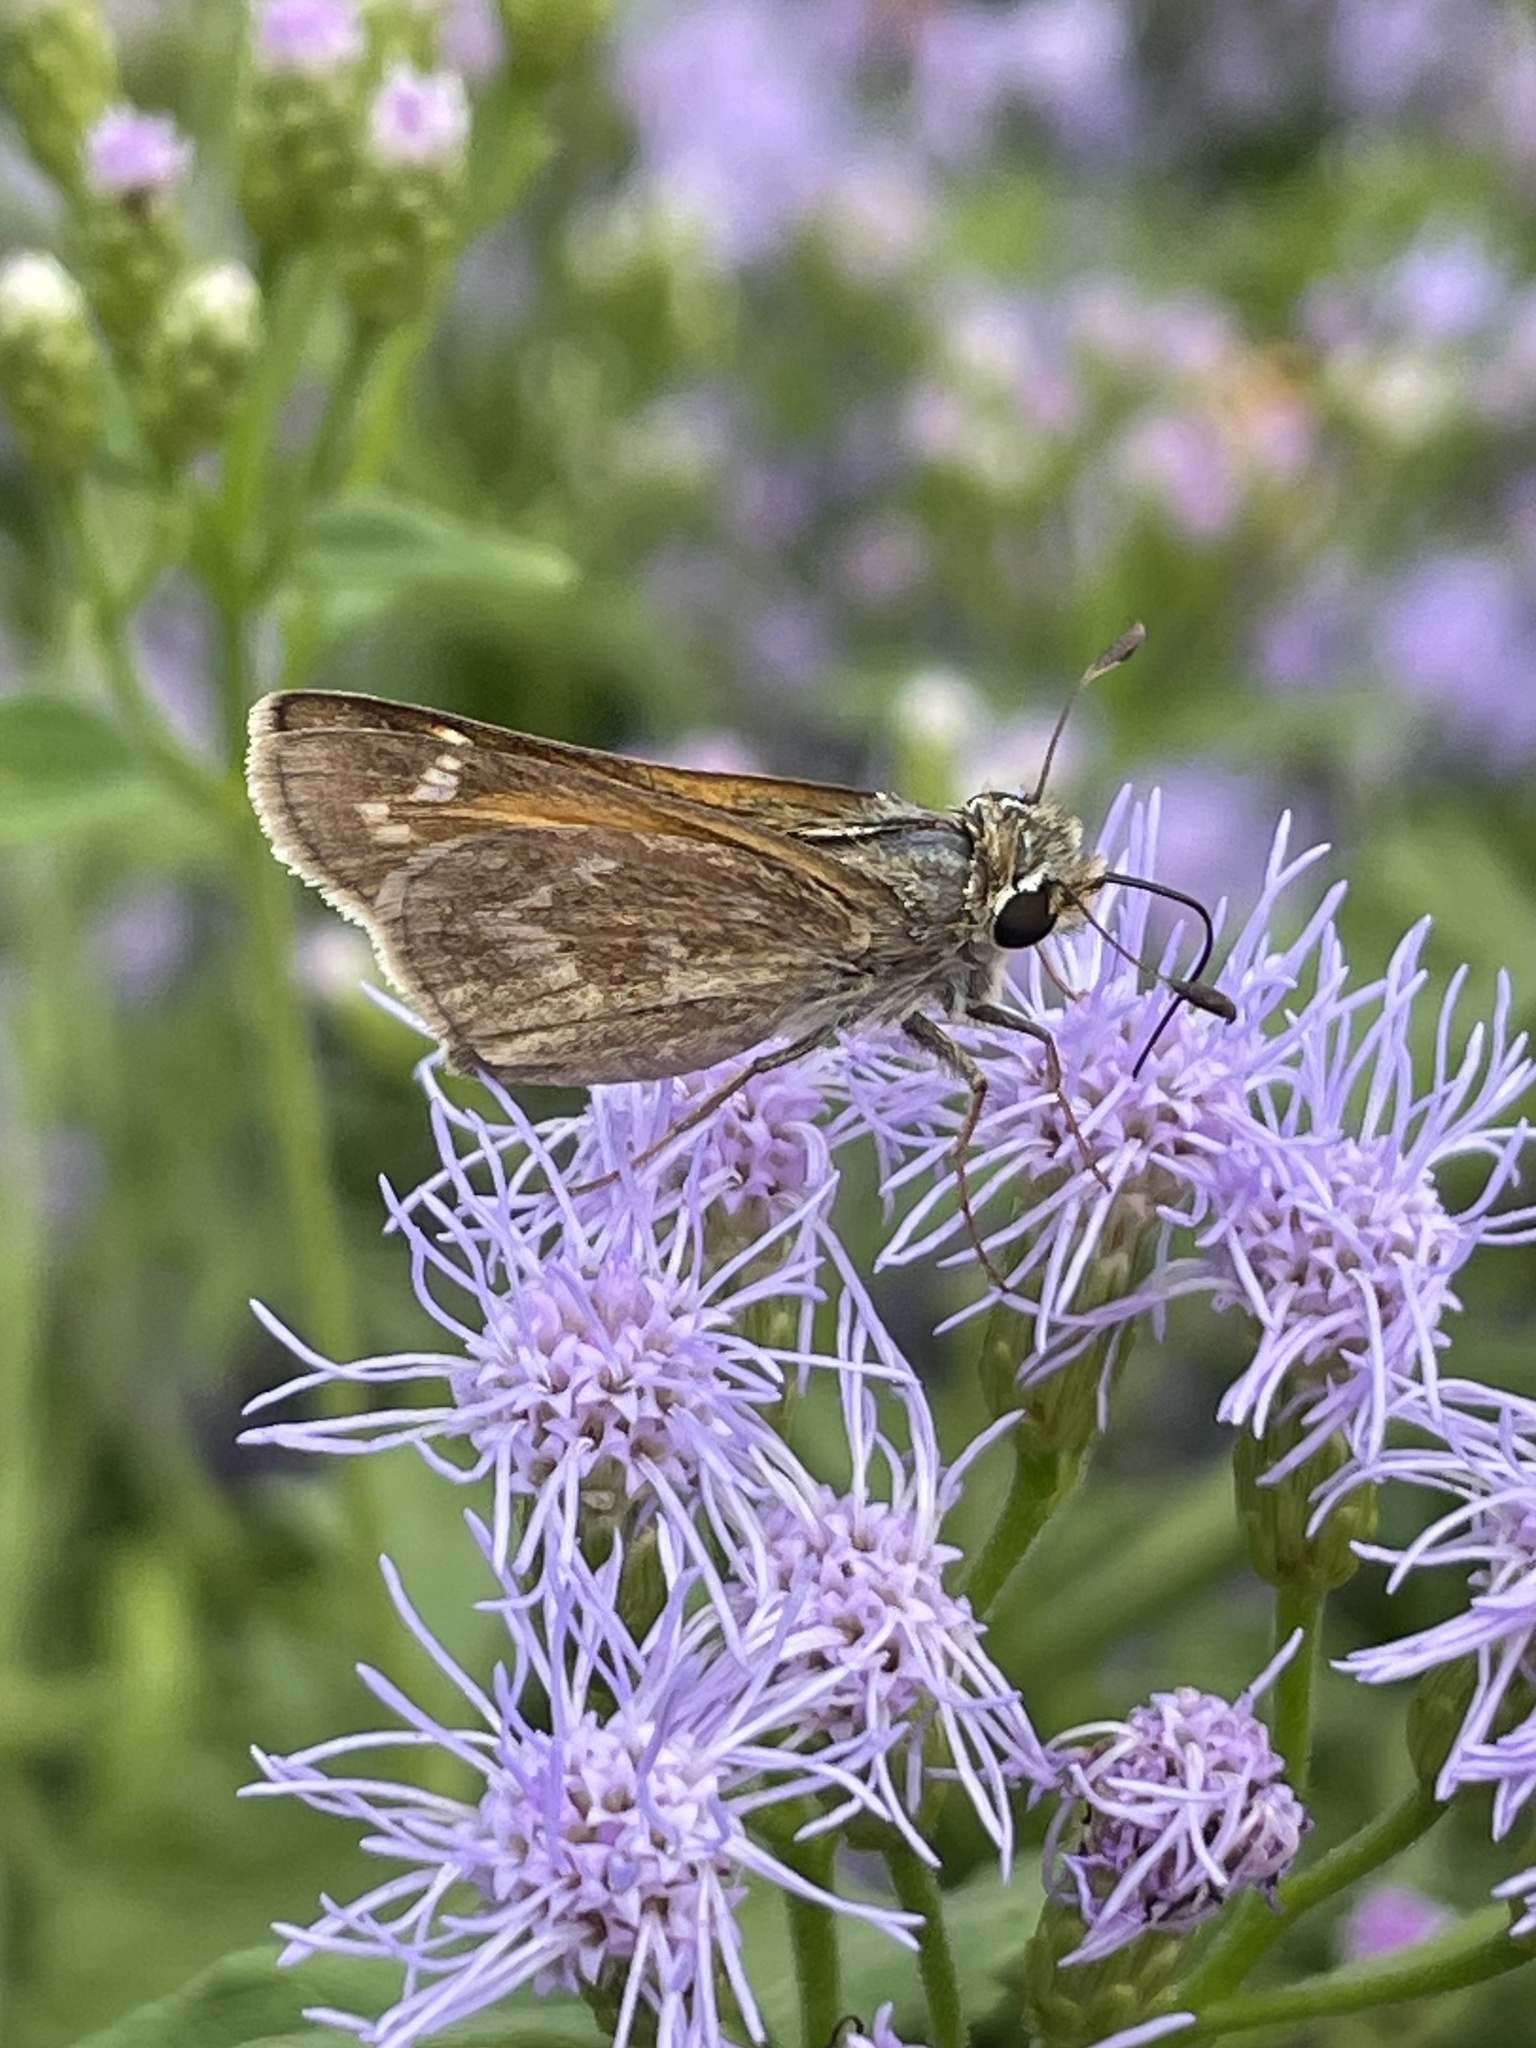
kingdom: Animalia
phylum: Arthropoda
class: Insecta
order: Lepidoptera
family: Hesperiidae
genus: Atalopedes
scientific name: Atalopedes
